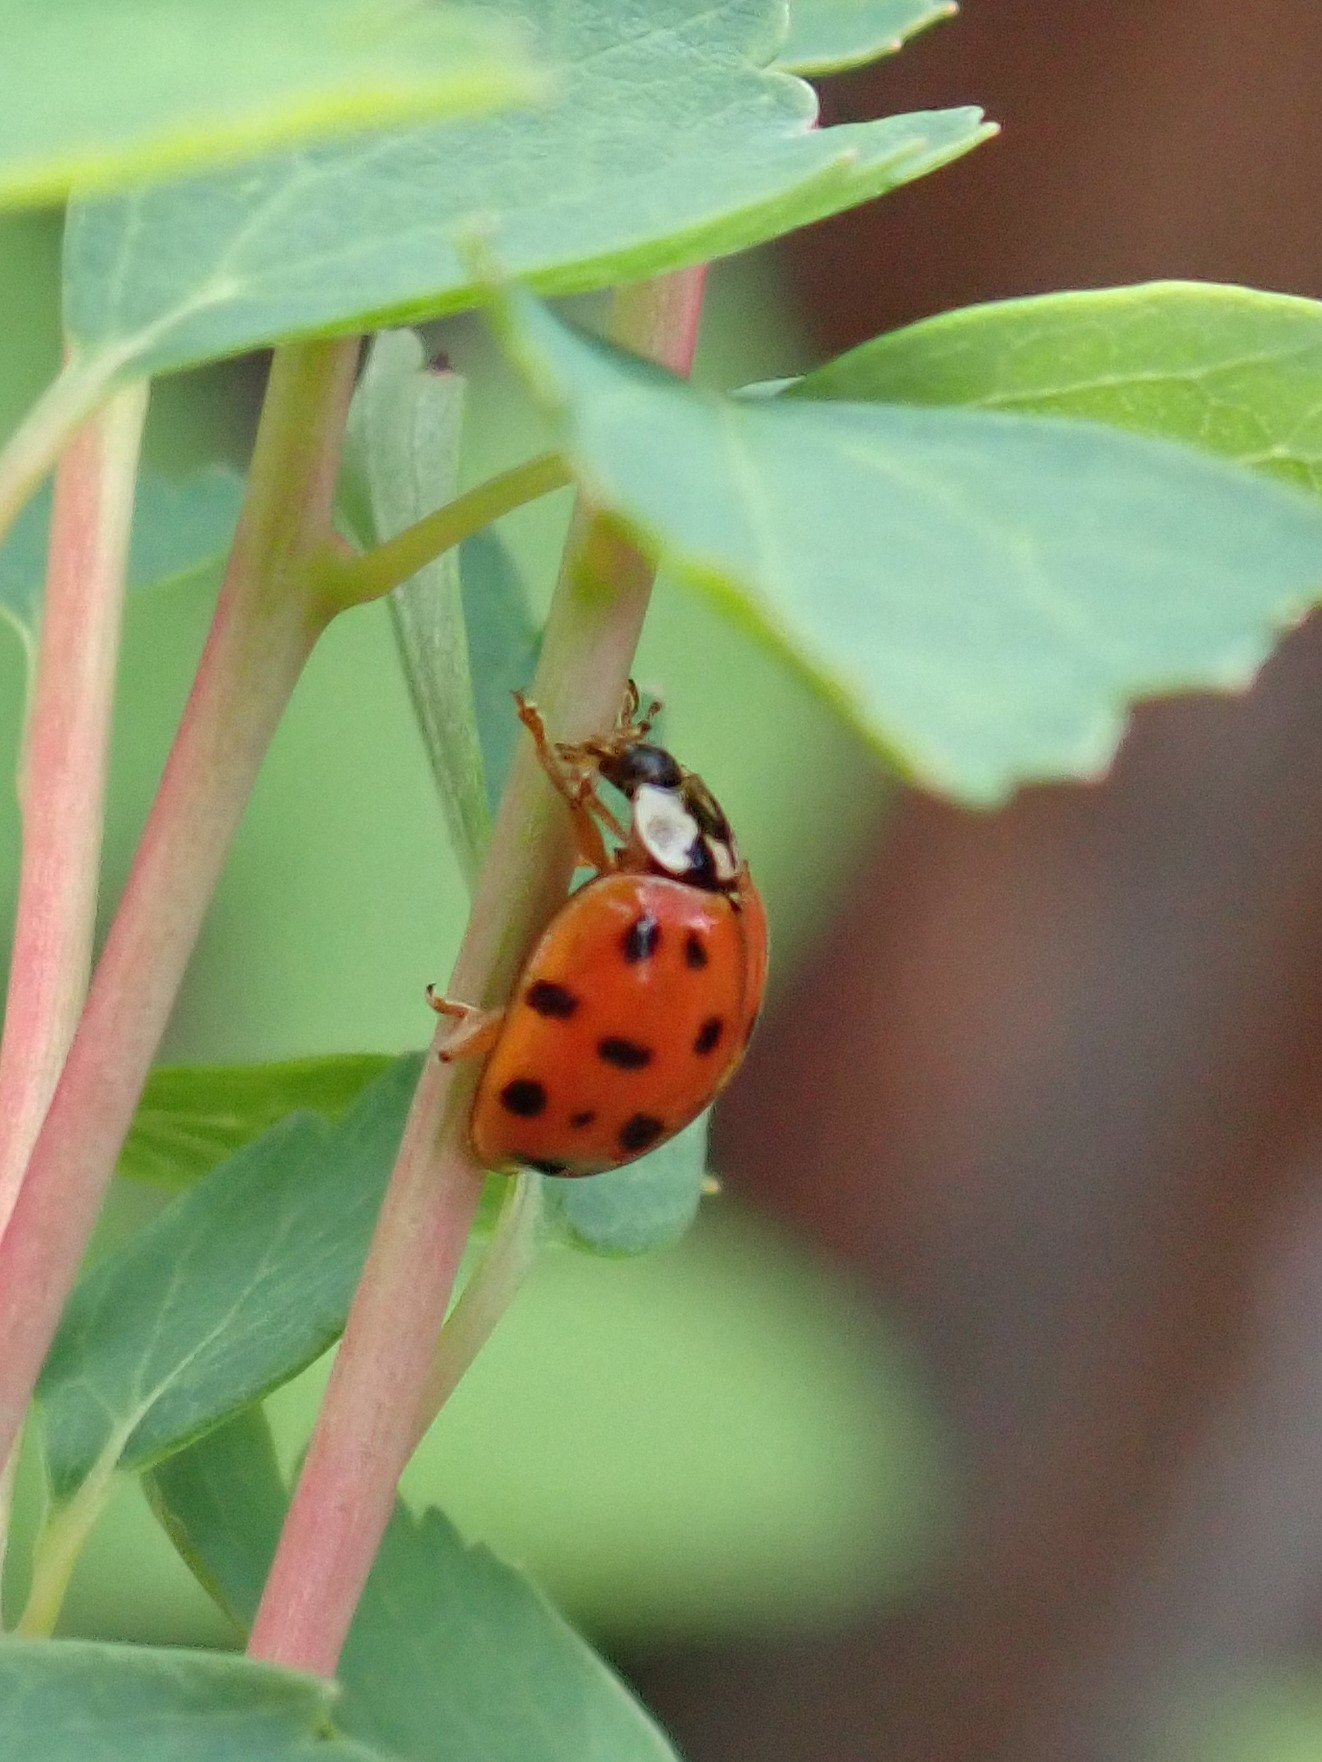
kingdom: Animalia
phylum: Arthropoda
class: Insecta
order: Coleoptera
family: Coccinellidae
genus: Harmonia
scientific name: Harmonia axyridis
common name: Harlequin ladybird
